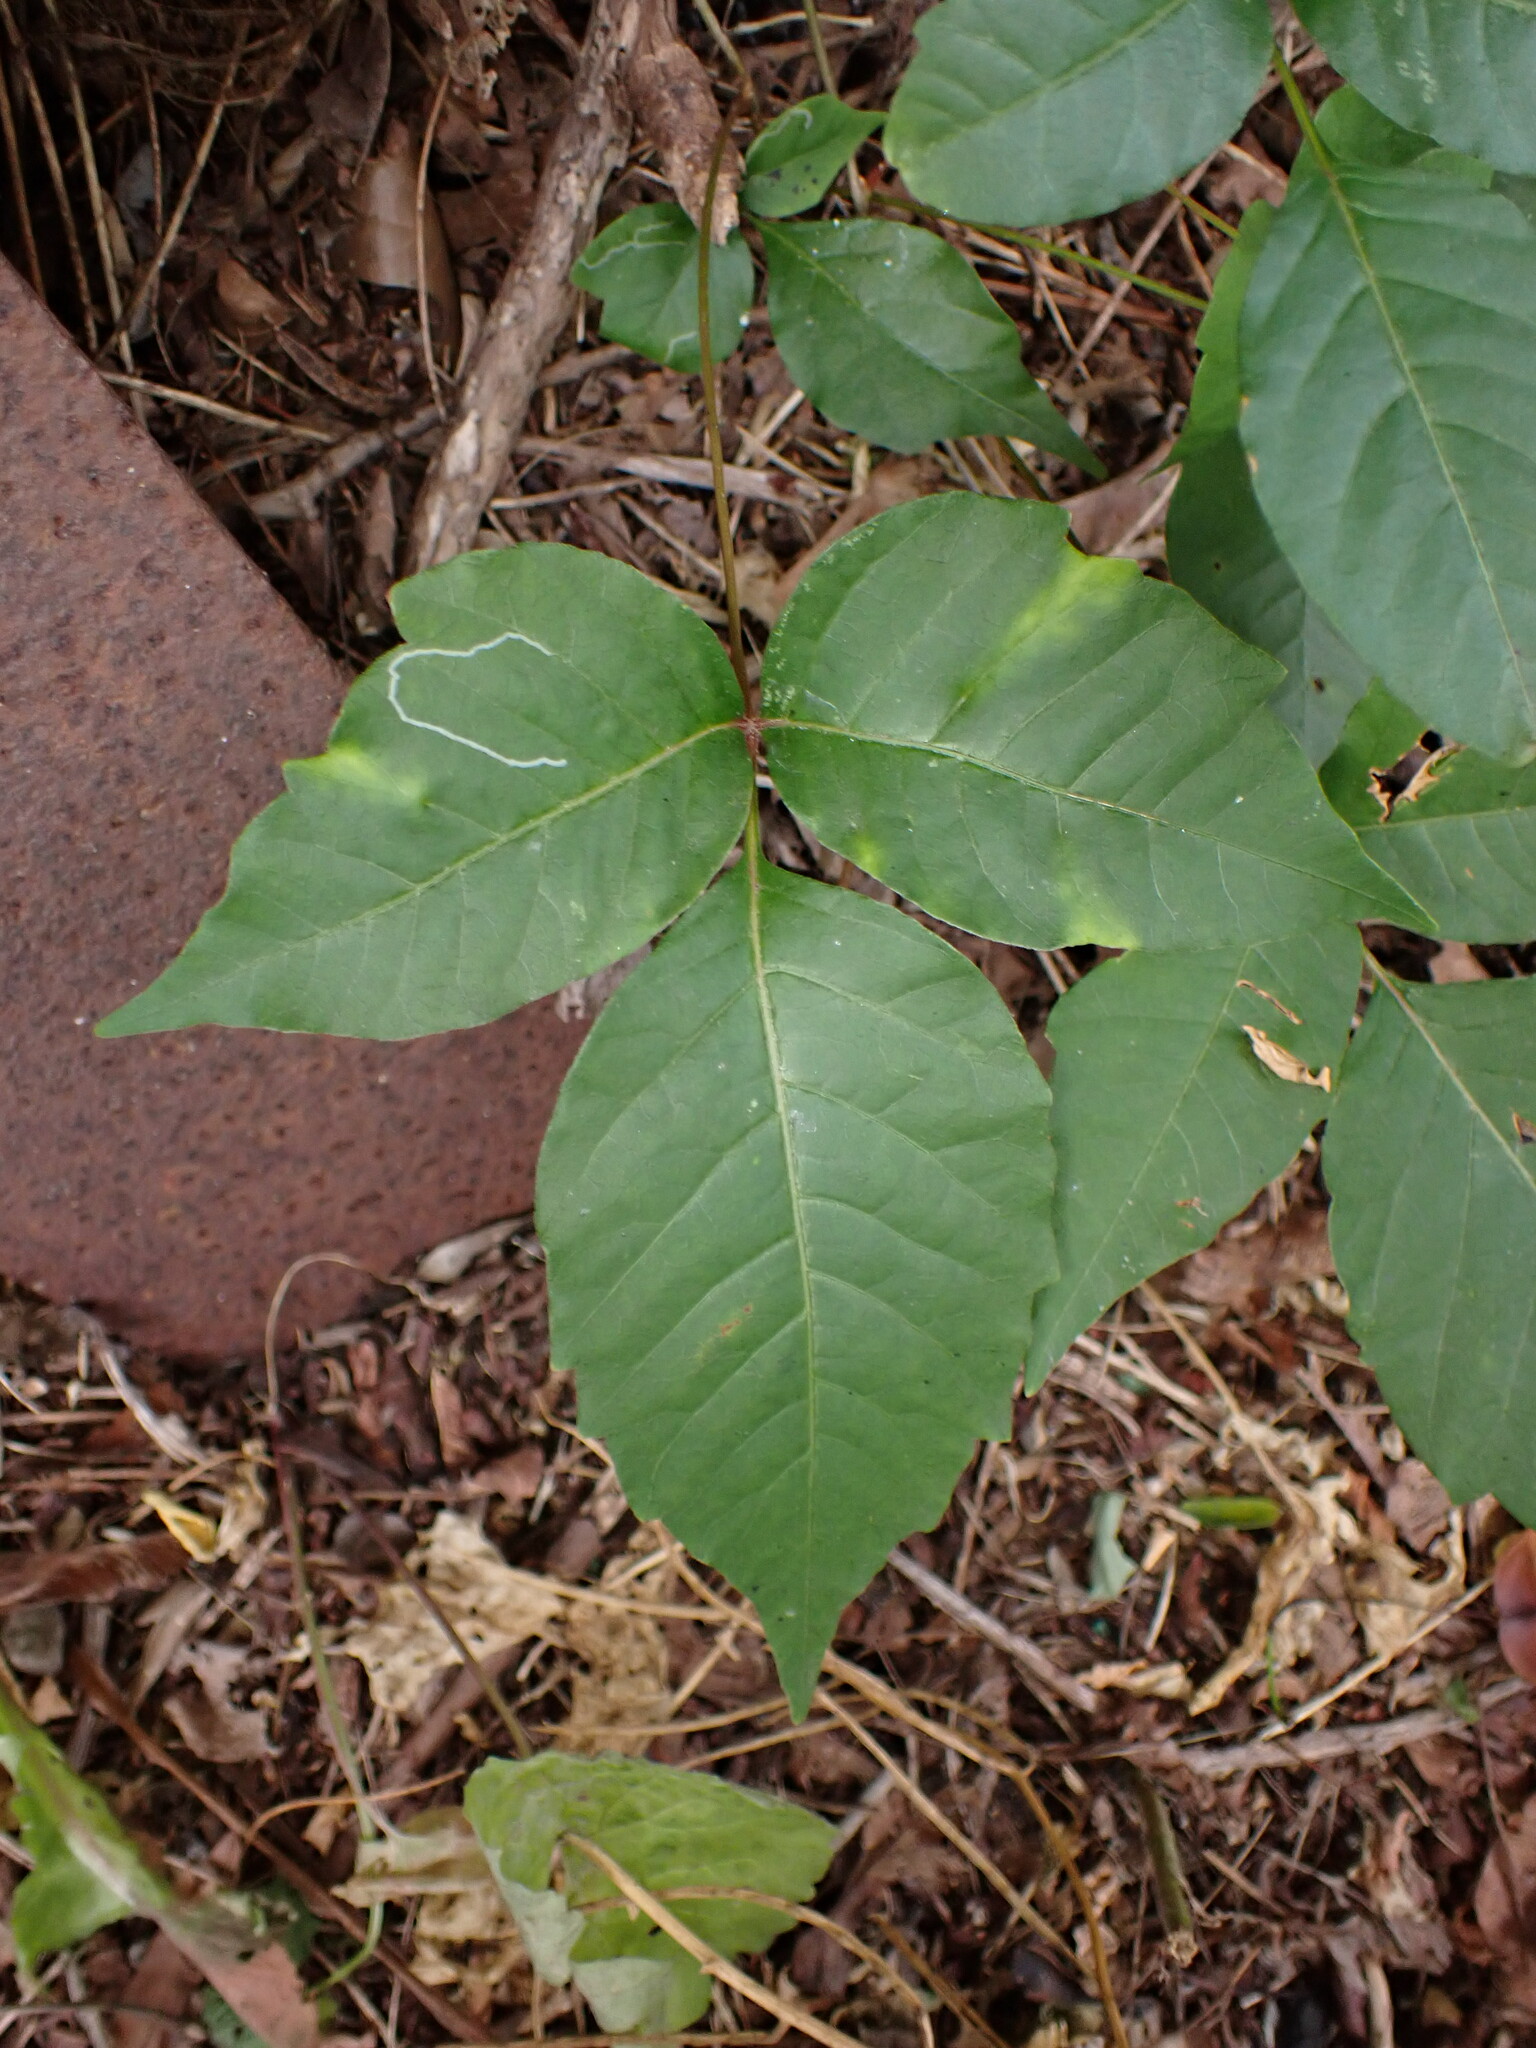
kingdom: Animalia
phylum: Arthropoda
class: Insecta
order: Lepidoptera
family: Gracillariidae
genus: Caloptilia
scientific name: Caloptilia rhoifoliella
